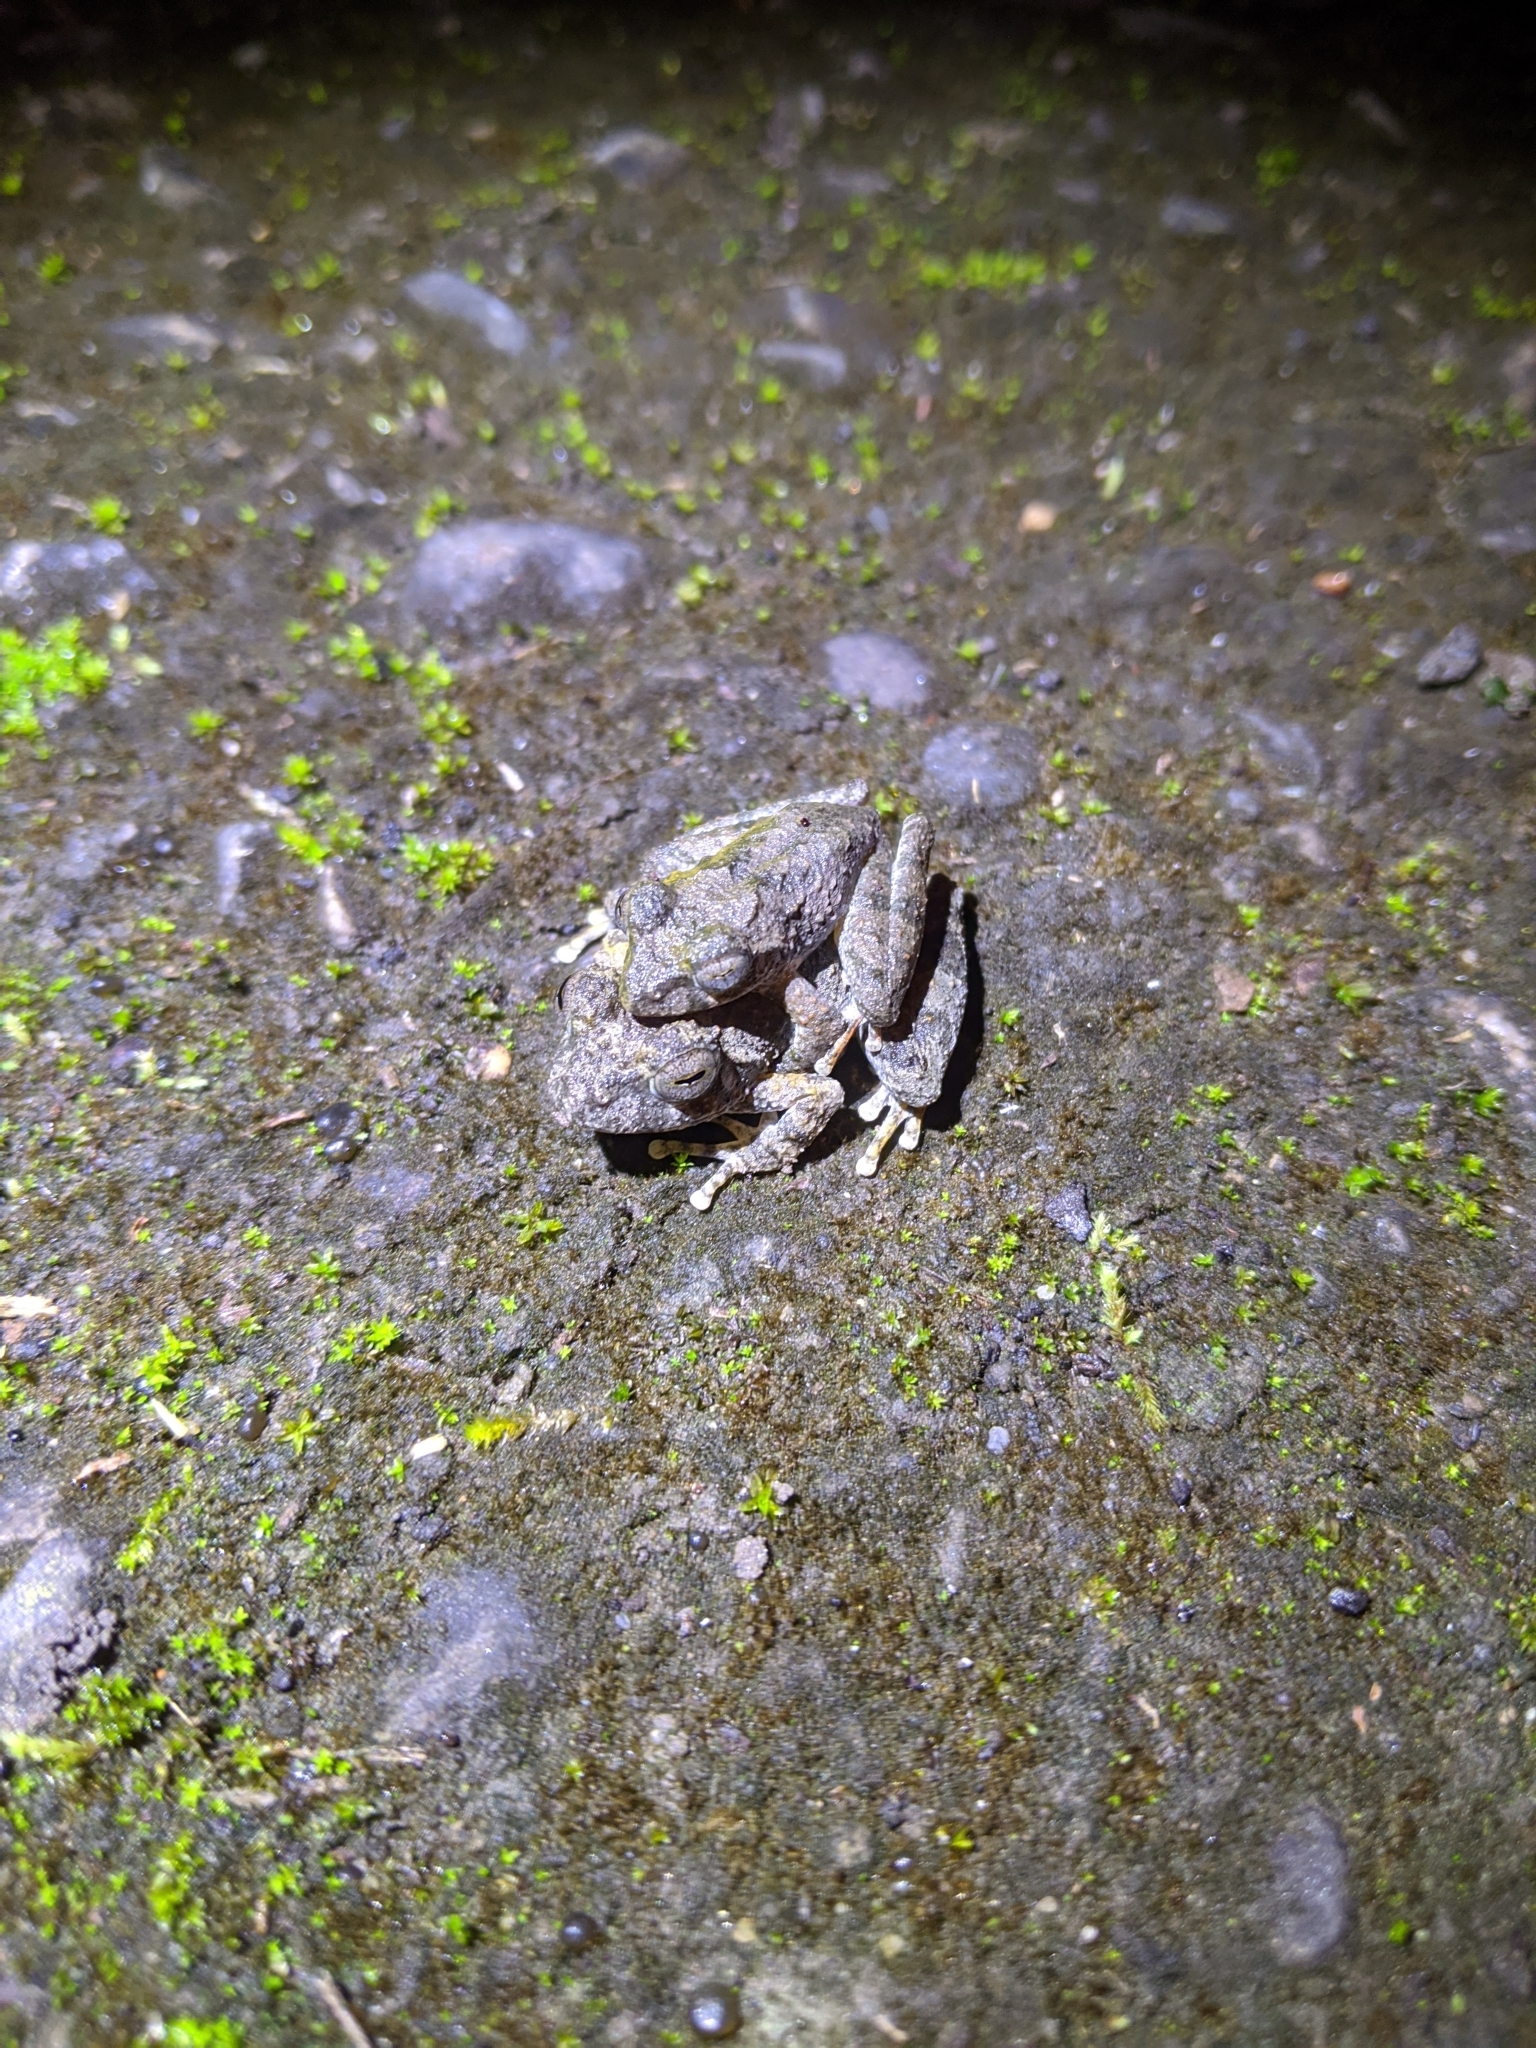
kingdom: Animalia
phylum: Chordata
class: Amphibia
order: Anura
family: Rhacophoridae
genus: Buergeria
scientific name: Buergeria otai
